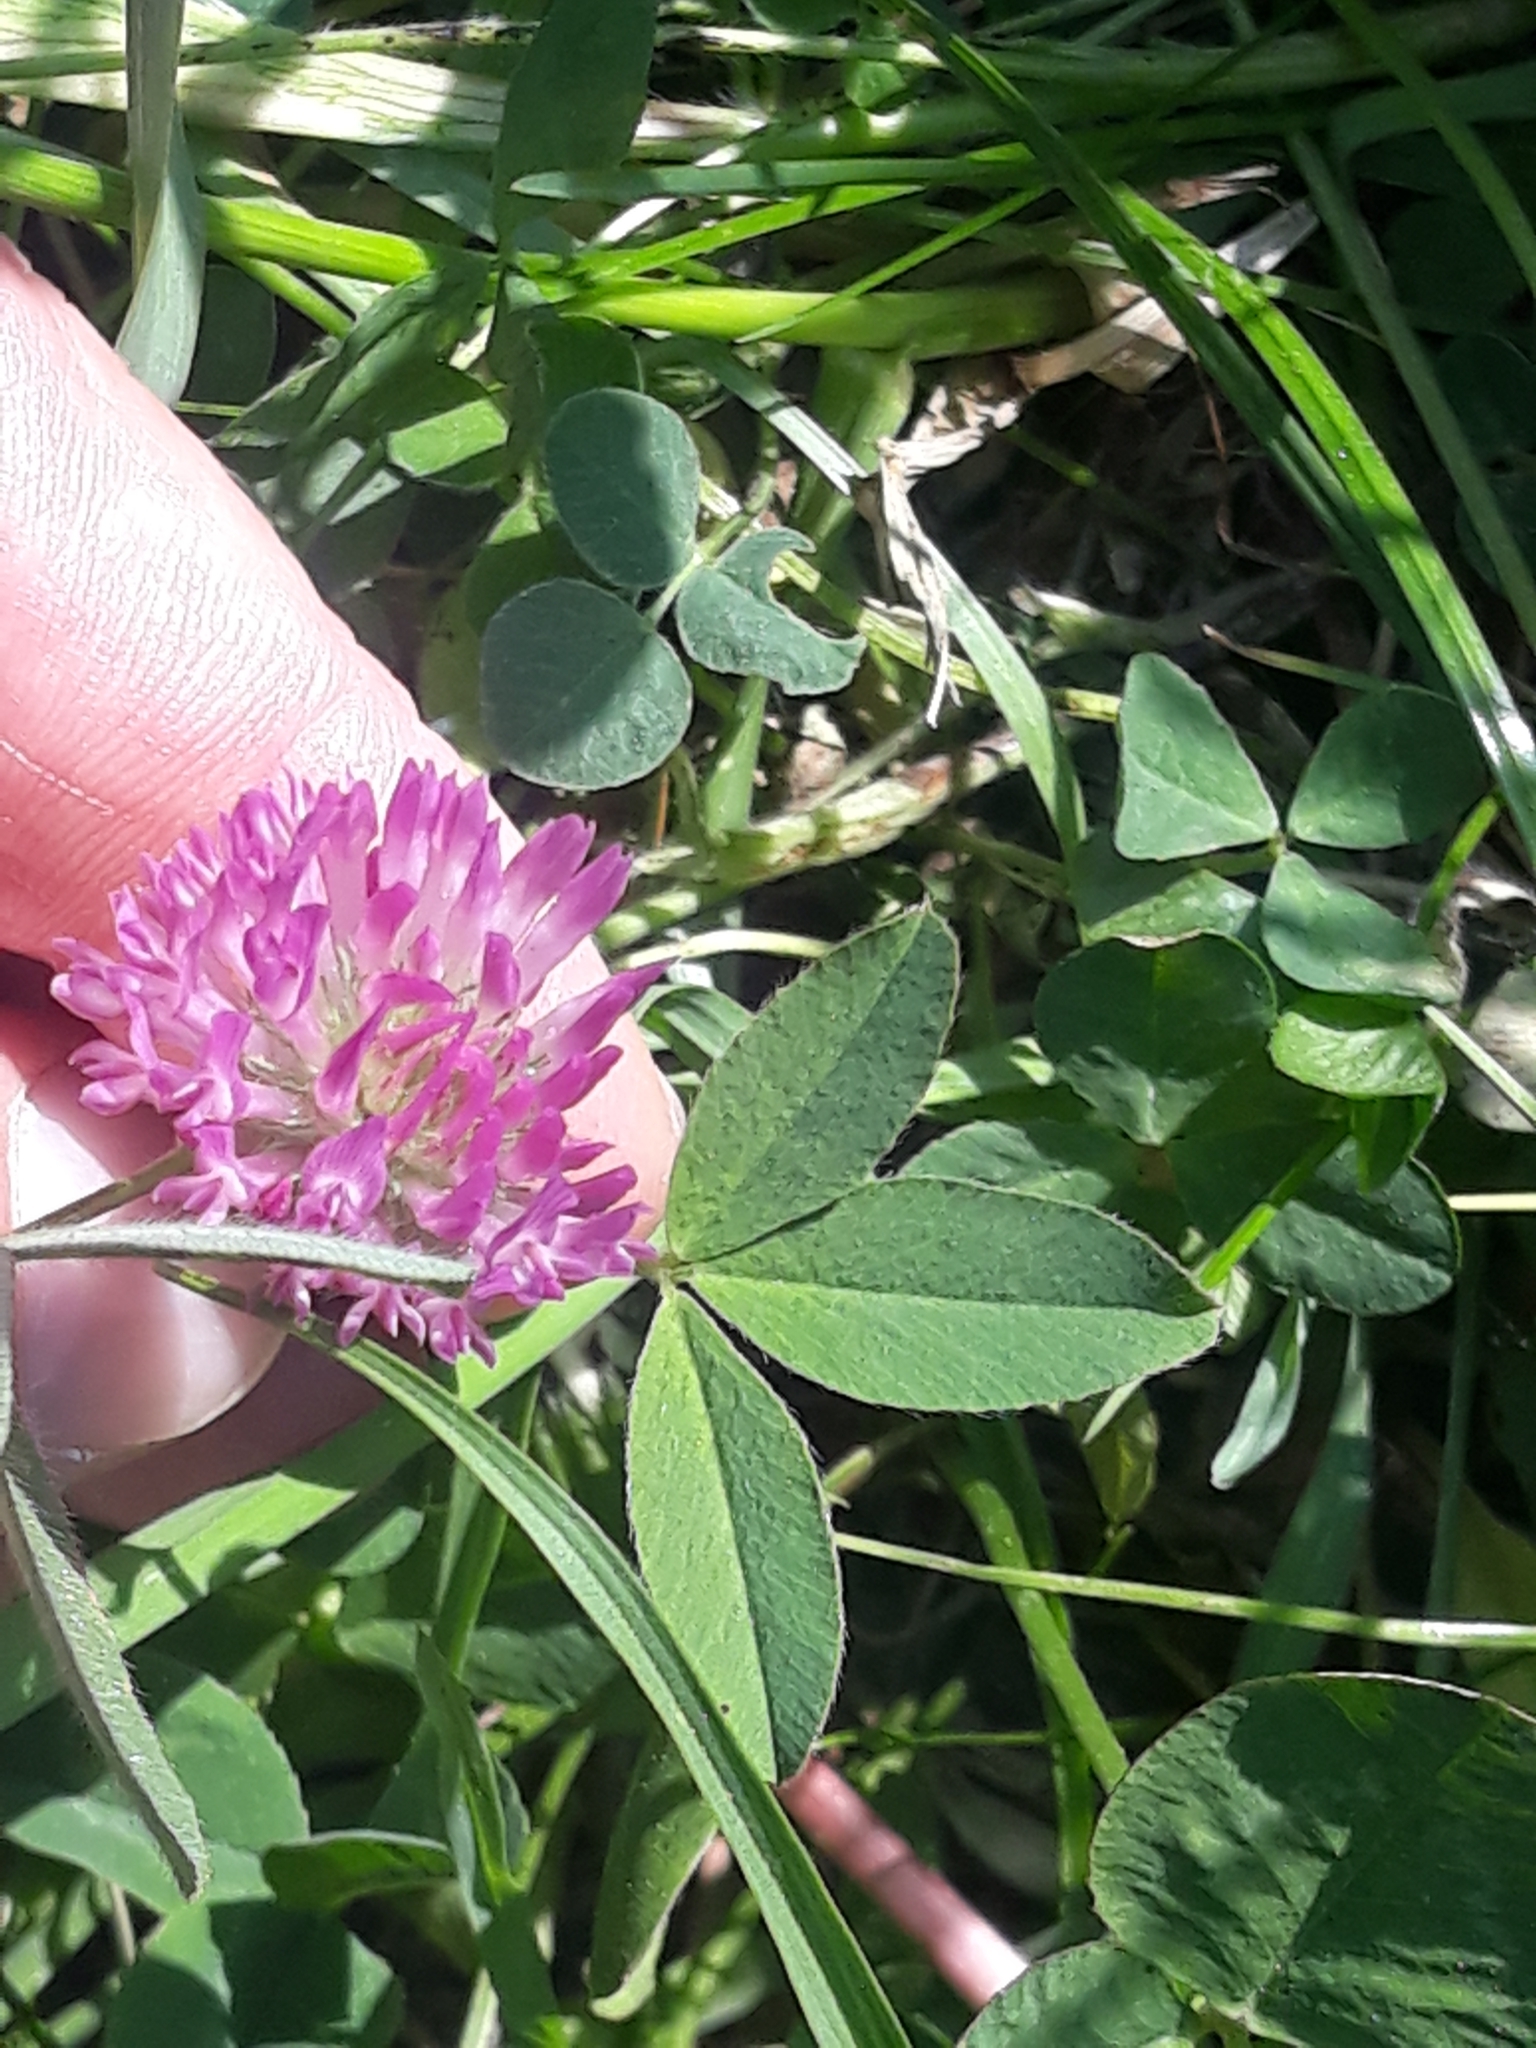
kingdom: Plantae
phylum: Tracheophyta
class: Magnoliopsida
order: Fabales
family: Fabaceae
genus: Trifolium
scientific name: Trifolium medium
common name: Zigzag clover
